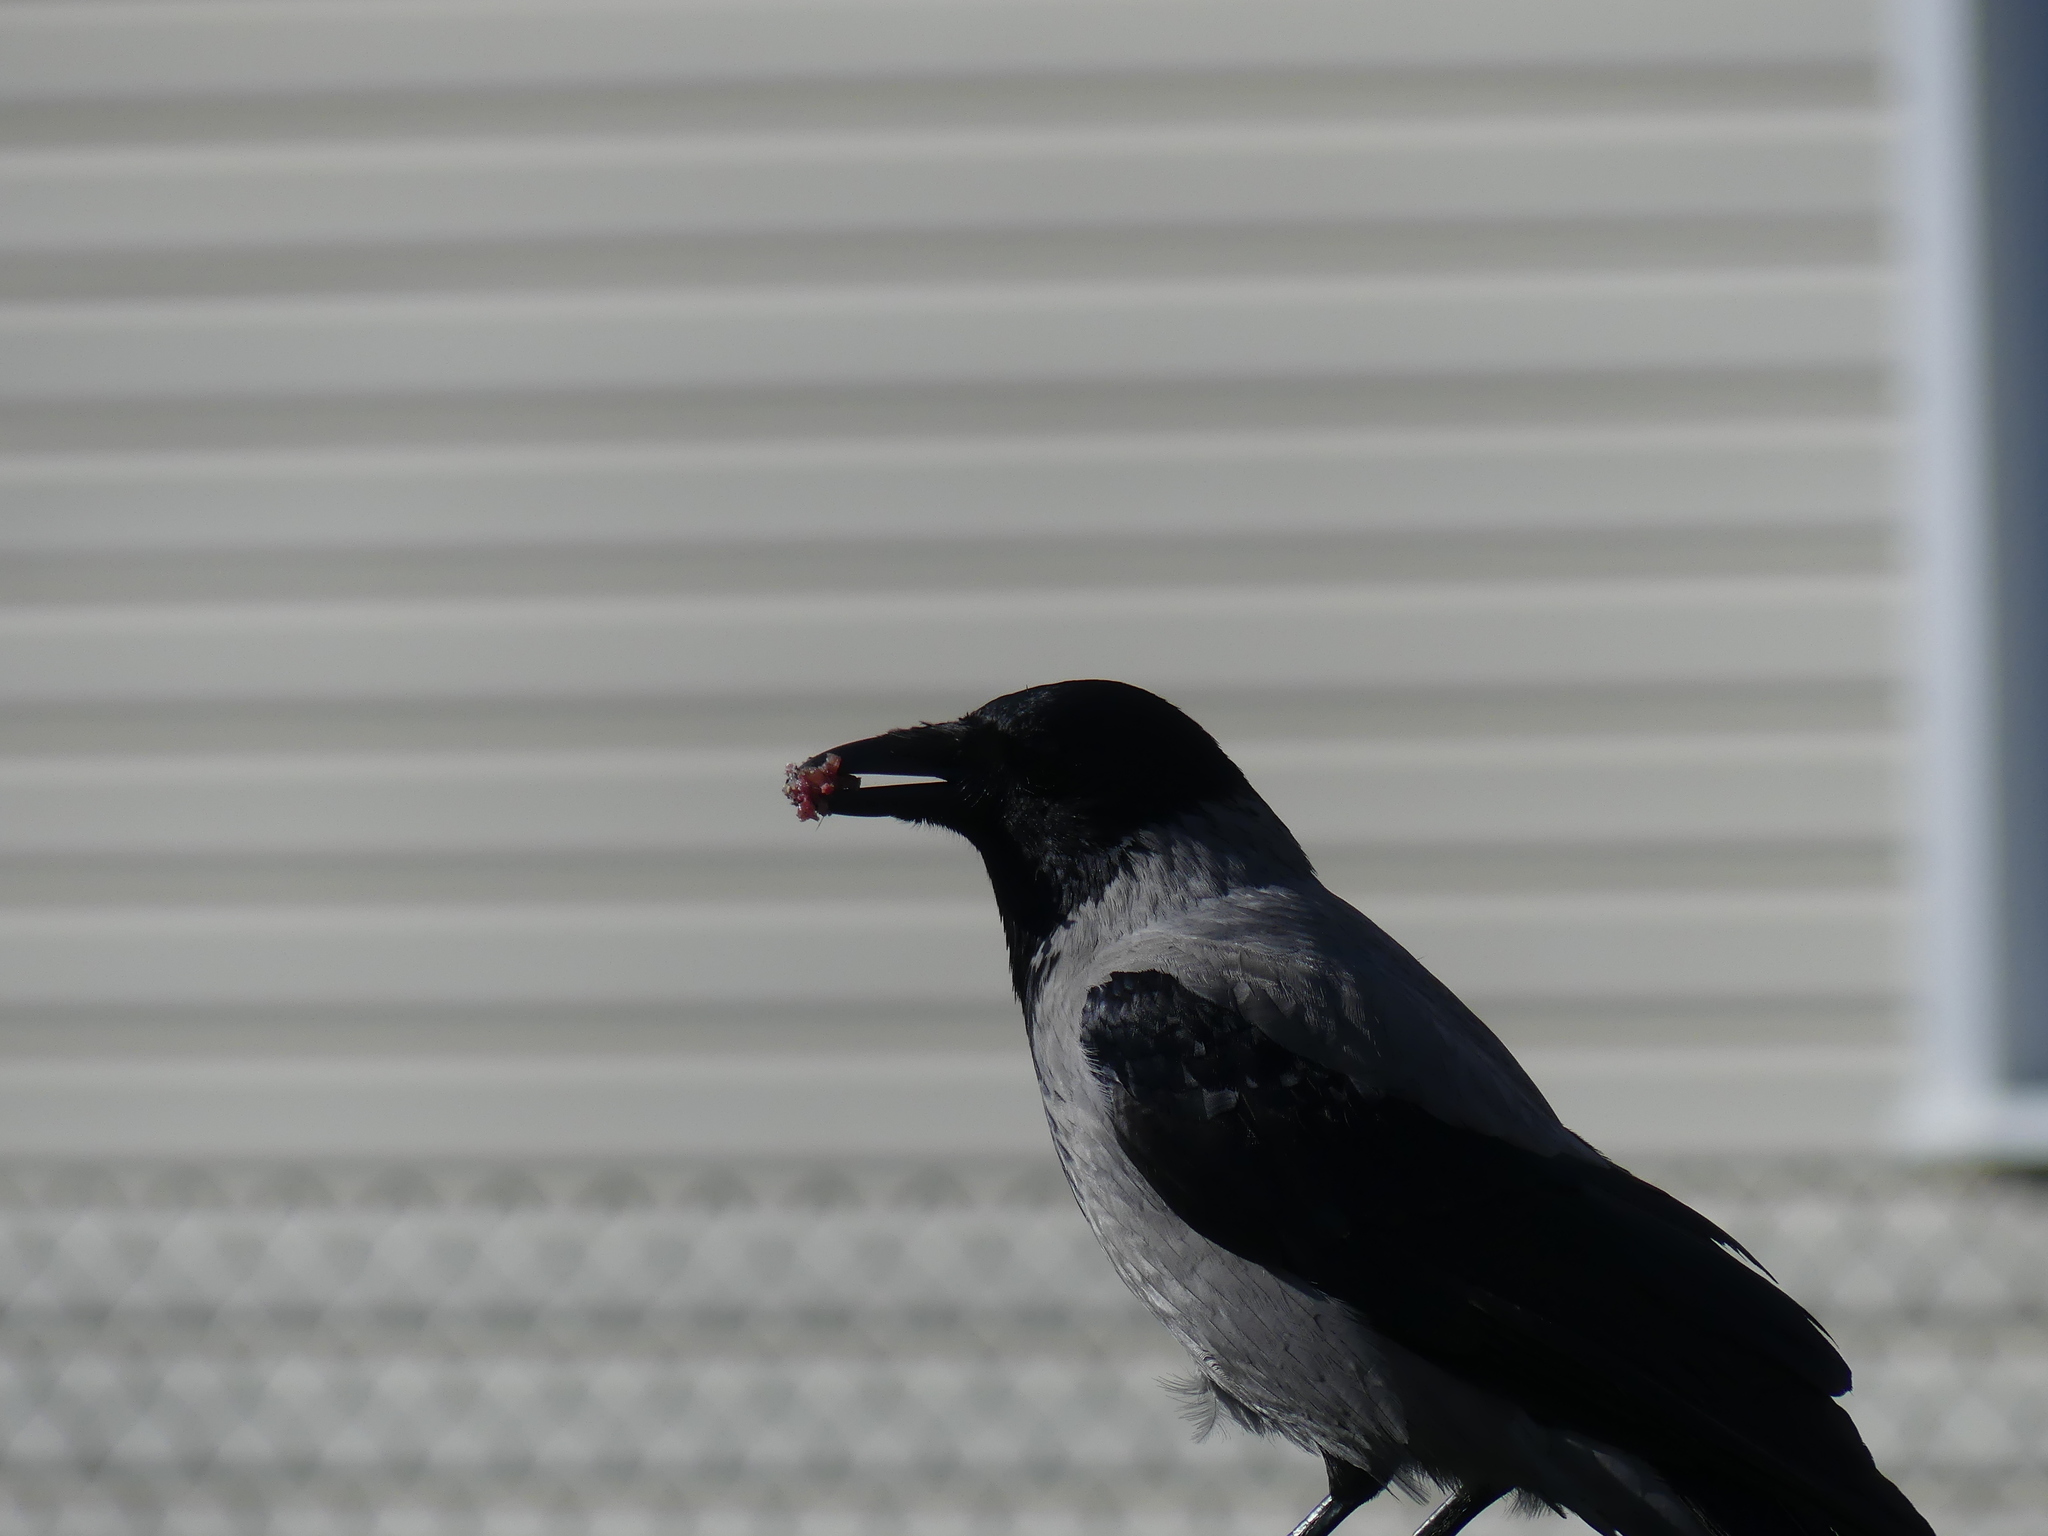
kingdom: Animalia
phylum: Chordata
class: Aves
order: Passeriformes
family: Corvidae
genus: Corvus
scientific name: Corvus cornix
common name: Hooded crow
